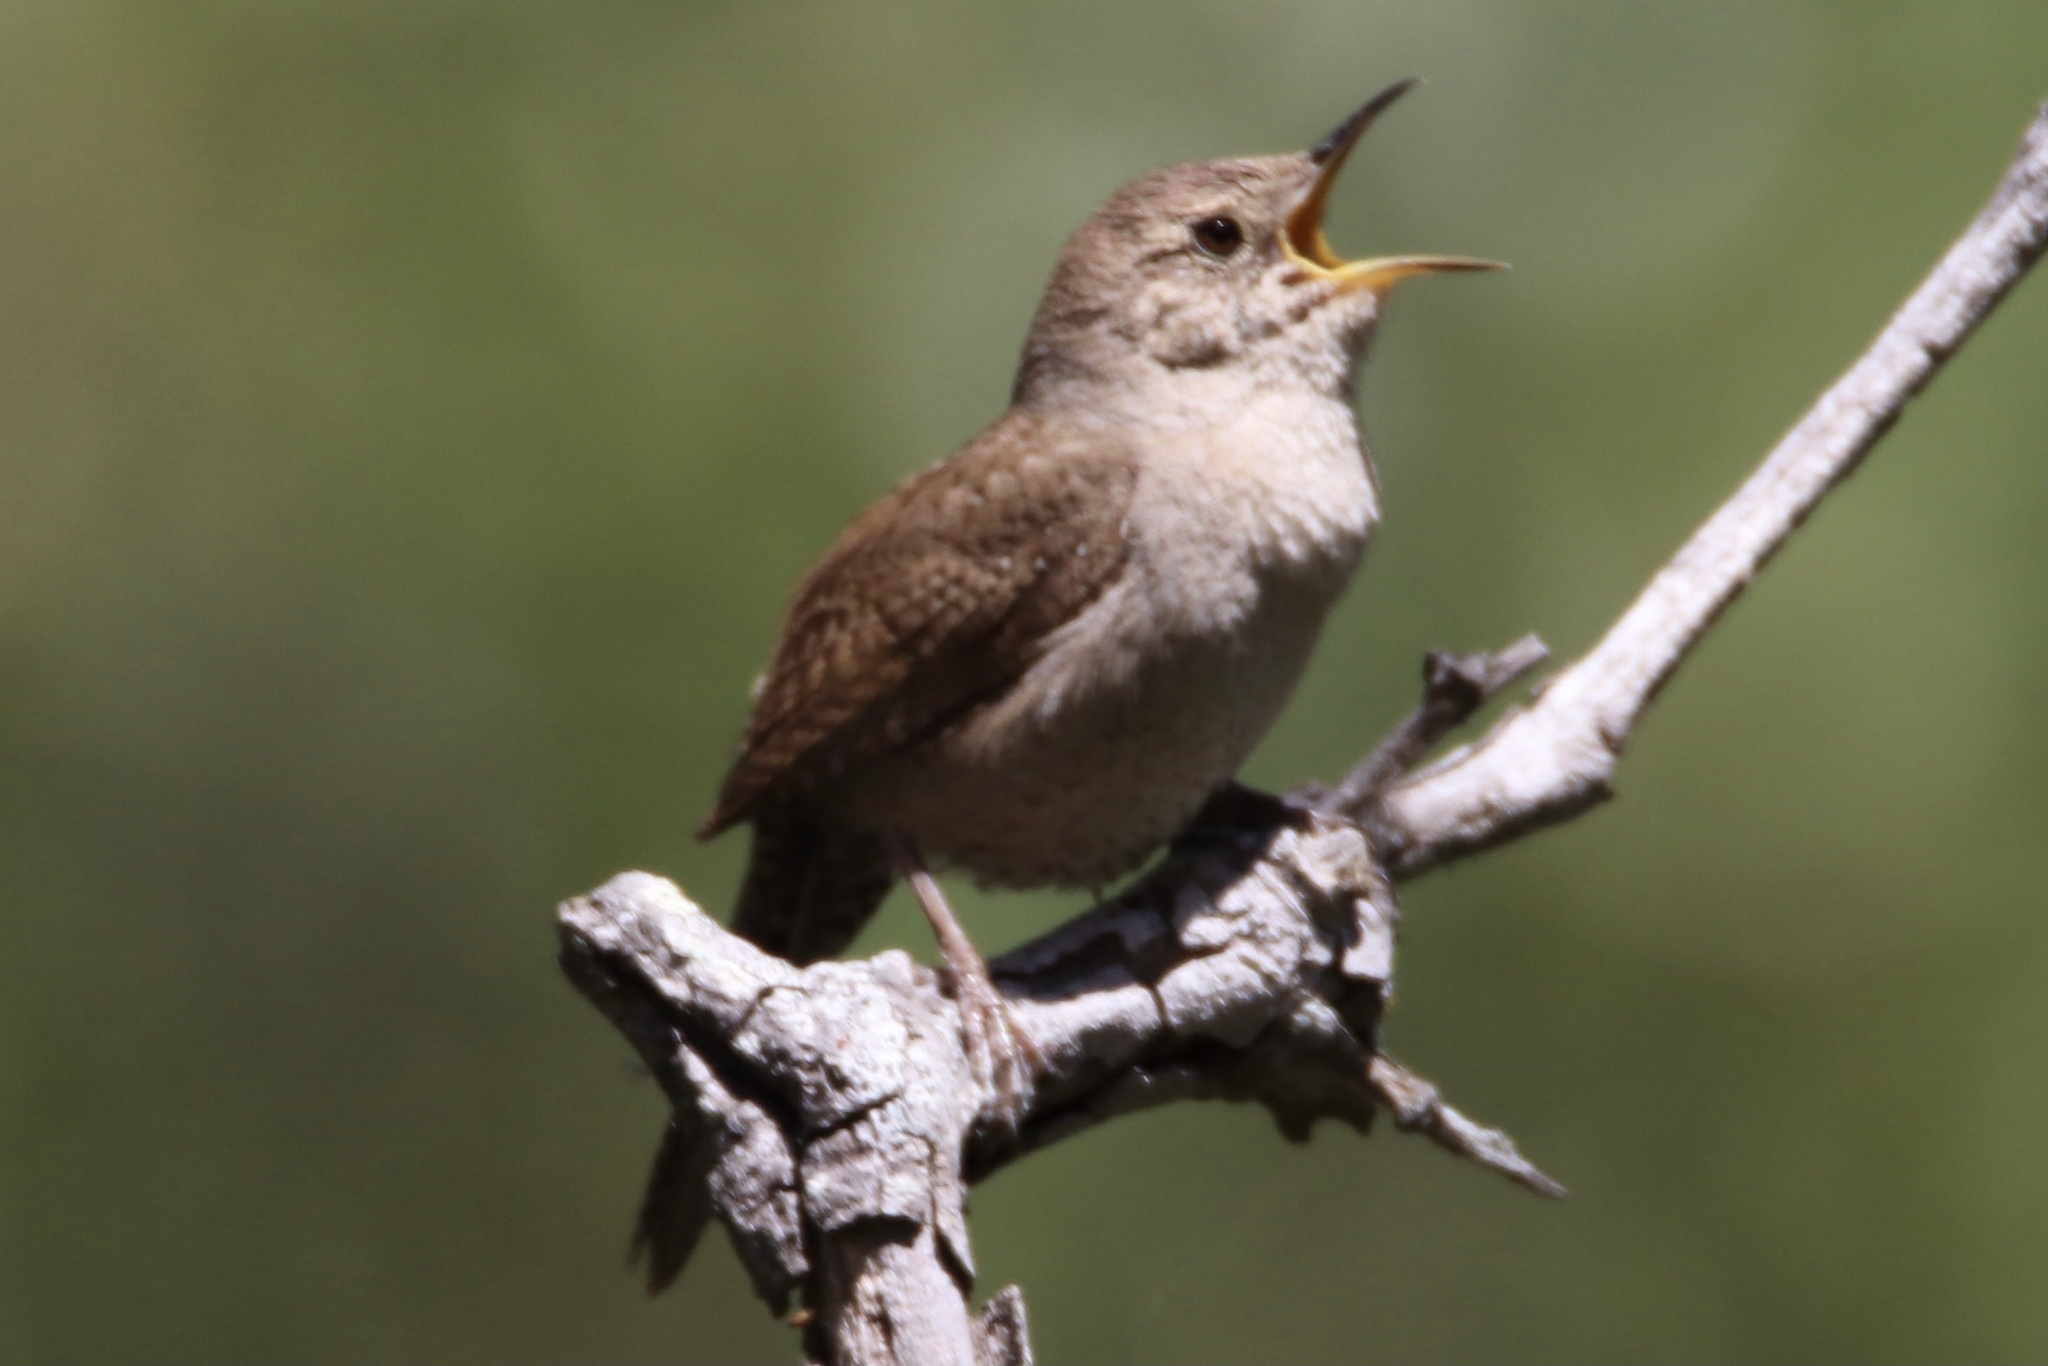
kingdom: Animalia
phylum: Chordata
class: Aves
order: Passeriformes
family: Troglodytidae
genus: Troglodytes
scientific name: Troglodytes aedon
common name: House wren
